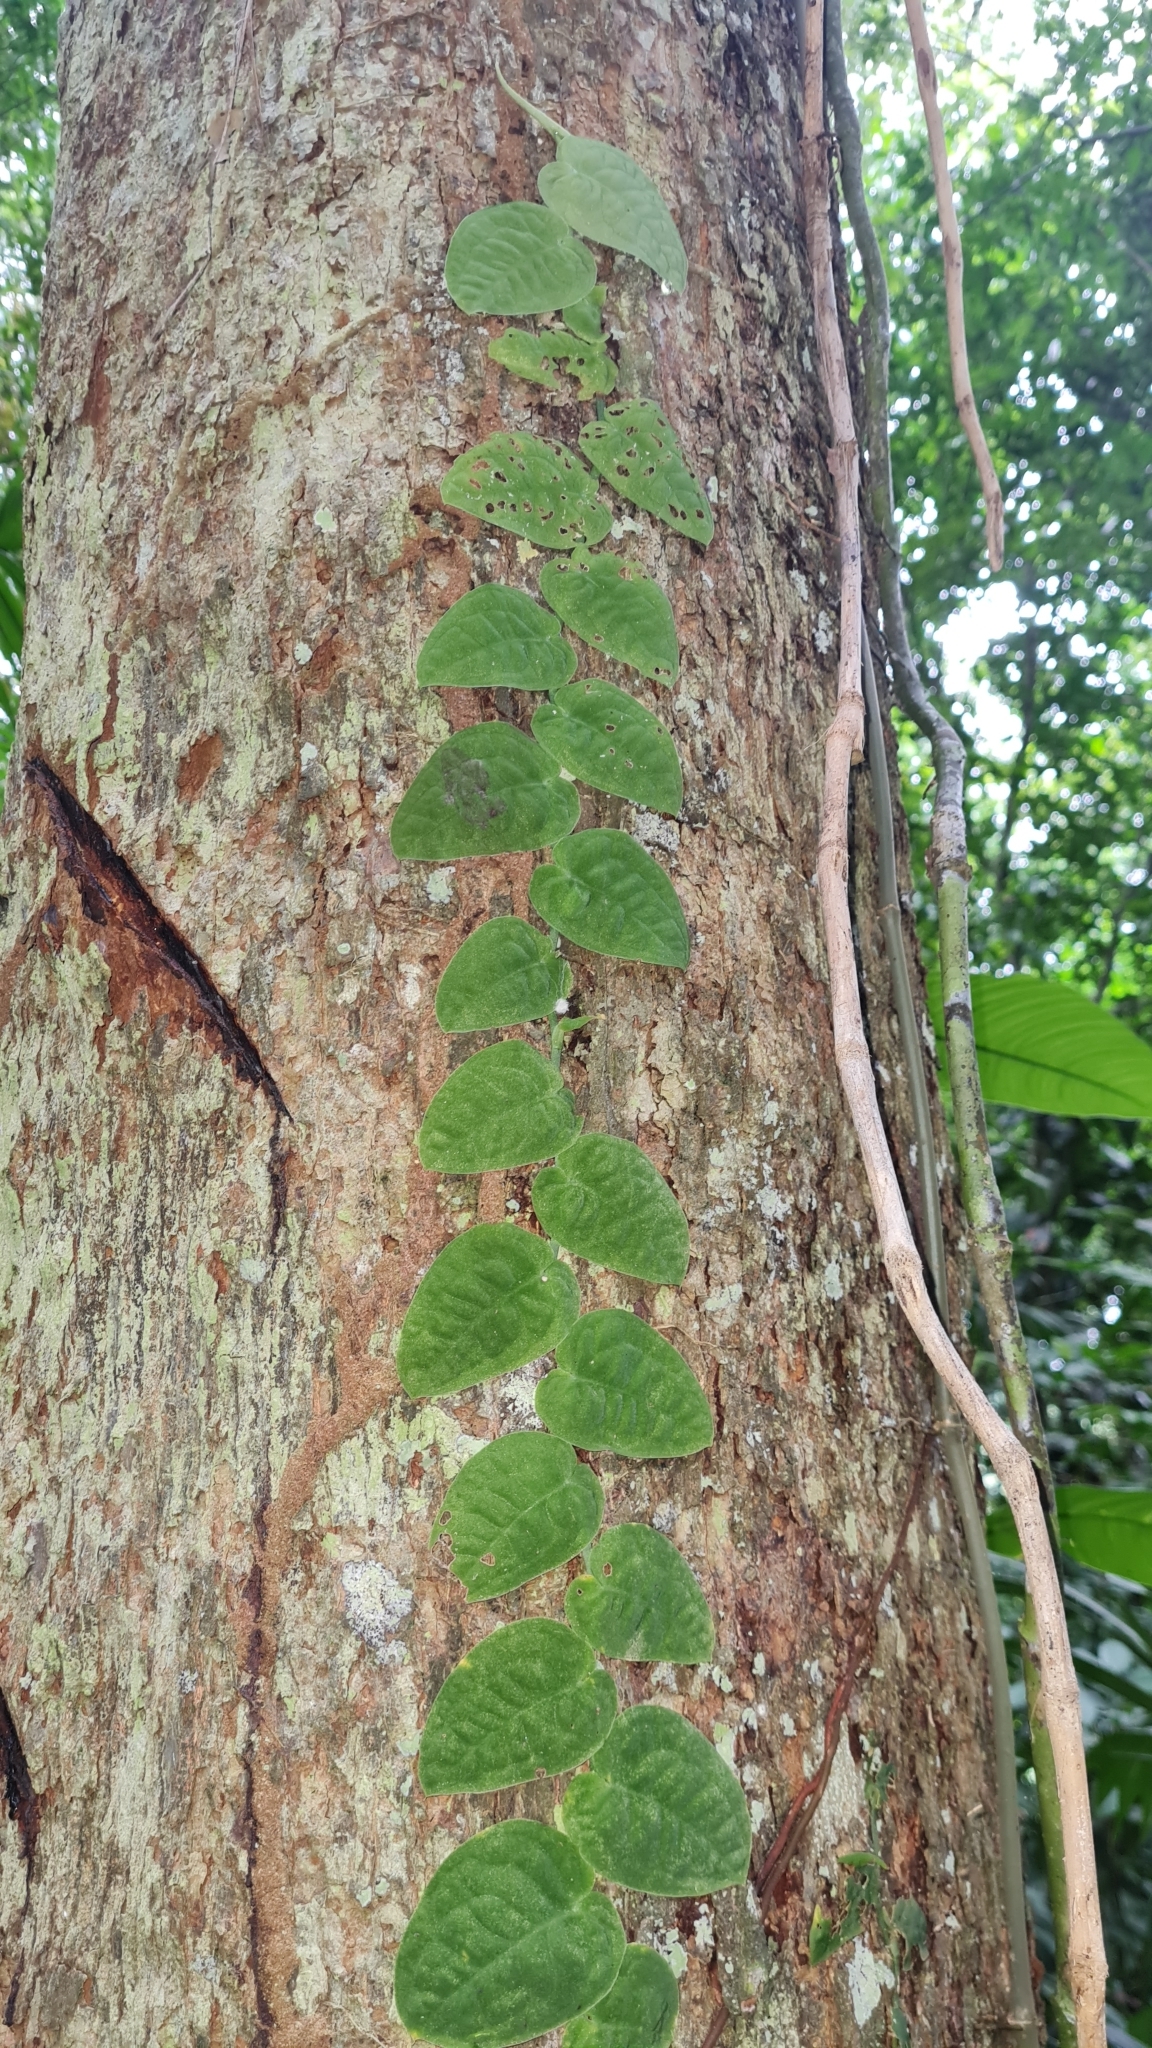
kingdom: Plantae
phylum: Tracheophyta
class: Liliopsida
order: Alismatales
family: Araceae
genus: Monstera
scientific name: Monstera dubia
